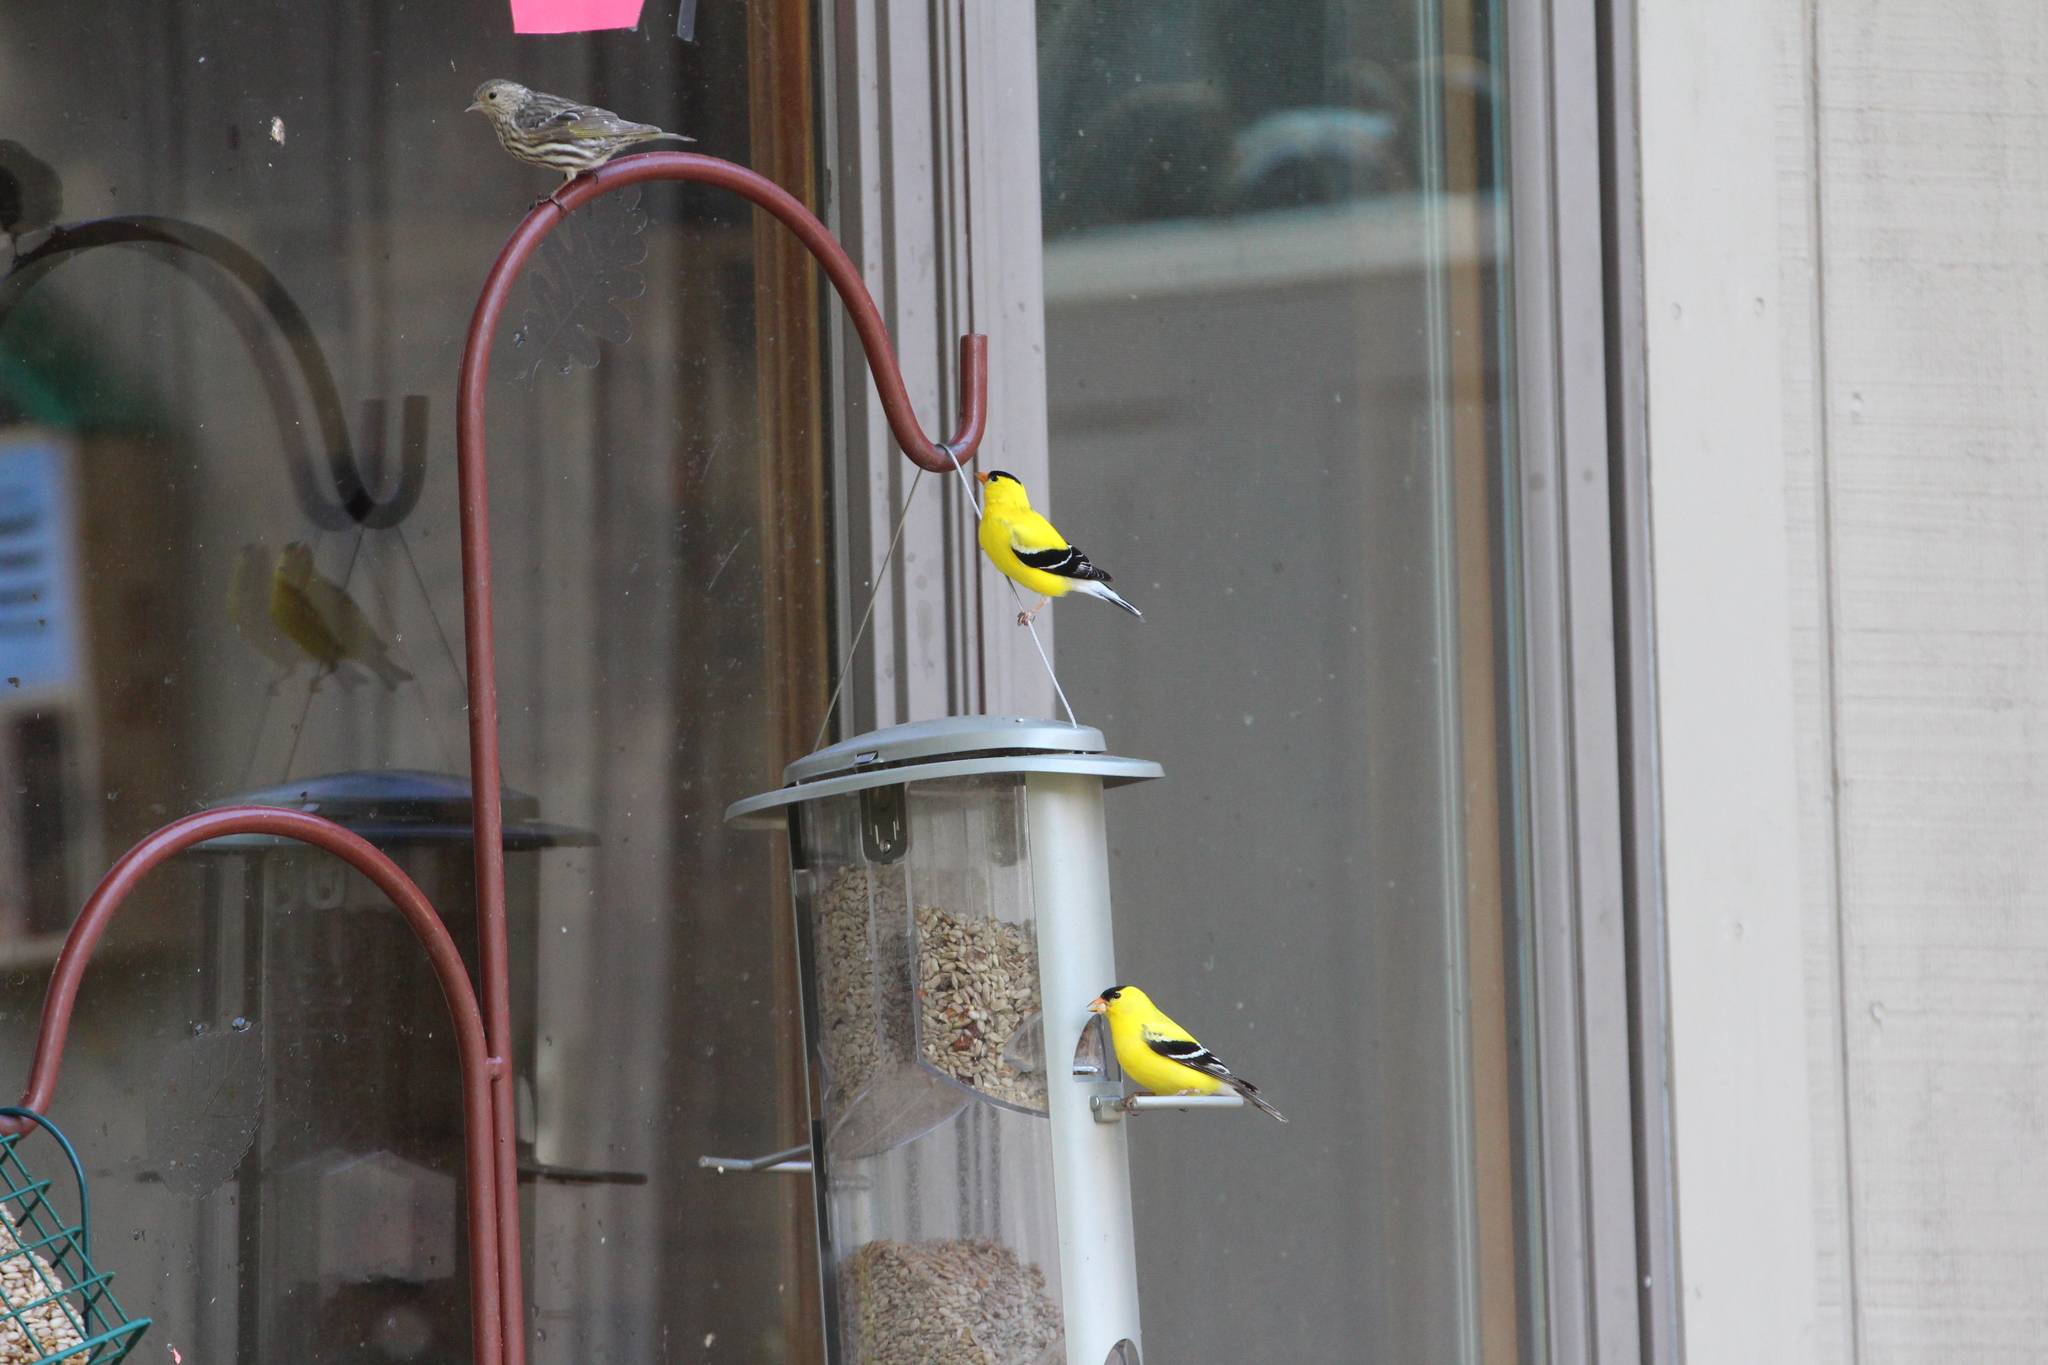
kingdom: Animalia
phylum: Chordata
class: Aves
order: Passeriformes
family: Fringillidae
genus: Spinus
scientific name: Spinus tristis
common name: American goldfinch
